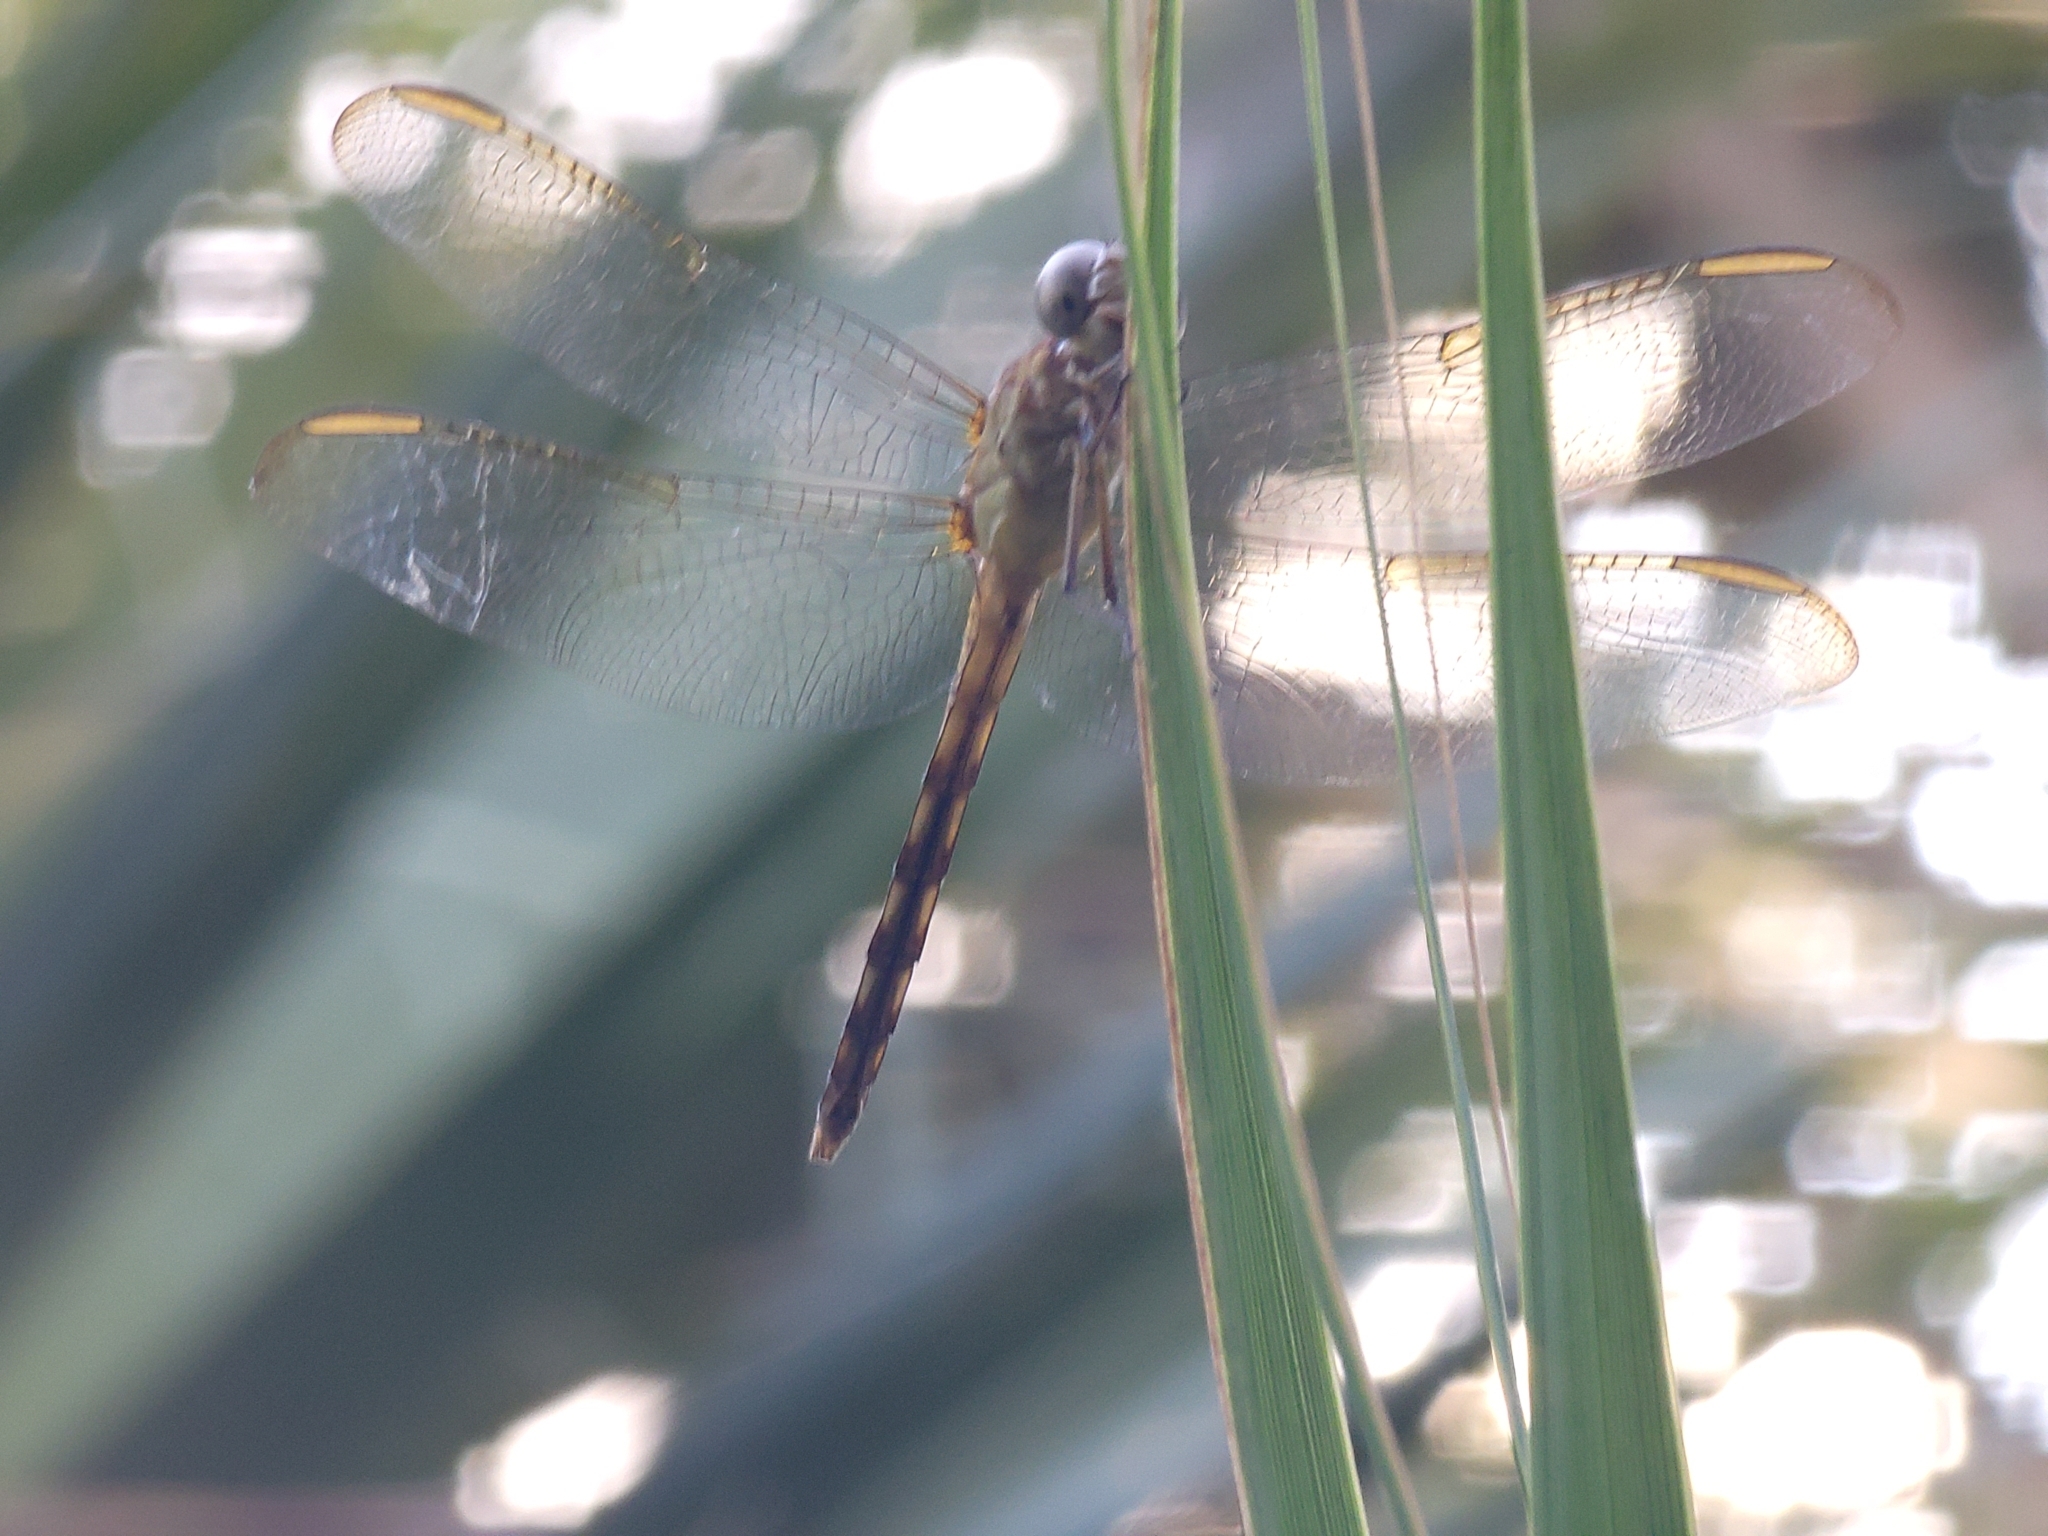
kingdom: Animalia
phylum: Arthropoda
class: Insecta
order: Odonata
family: Libellulidae
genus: Erythrodiplax
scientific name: Erythrodiplax umbrata
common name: Band-winged dragonlet
